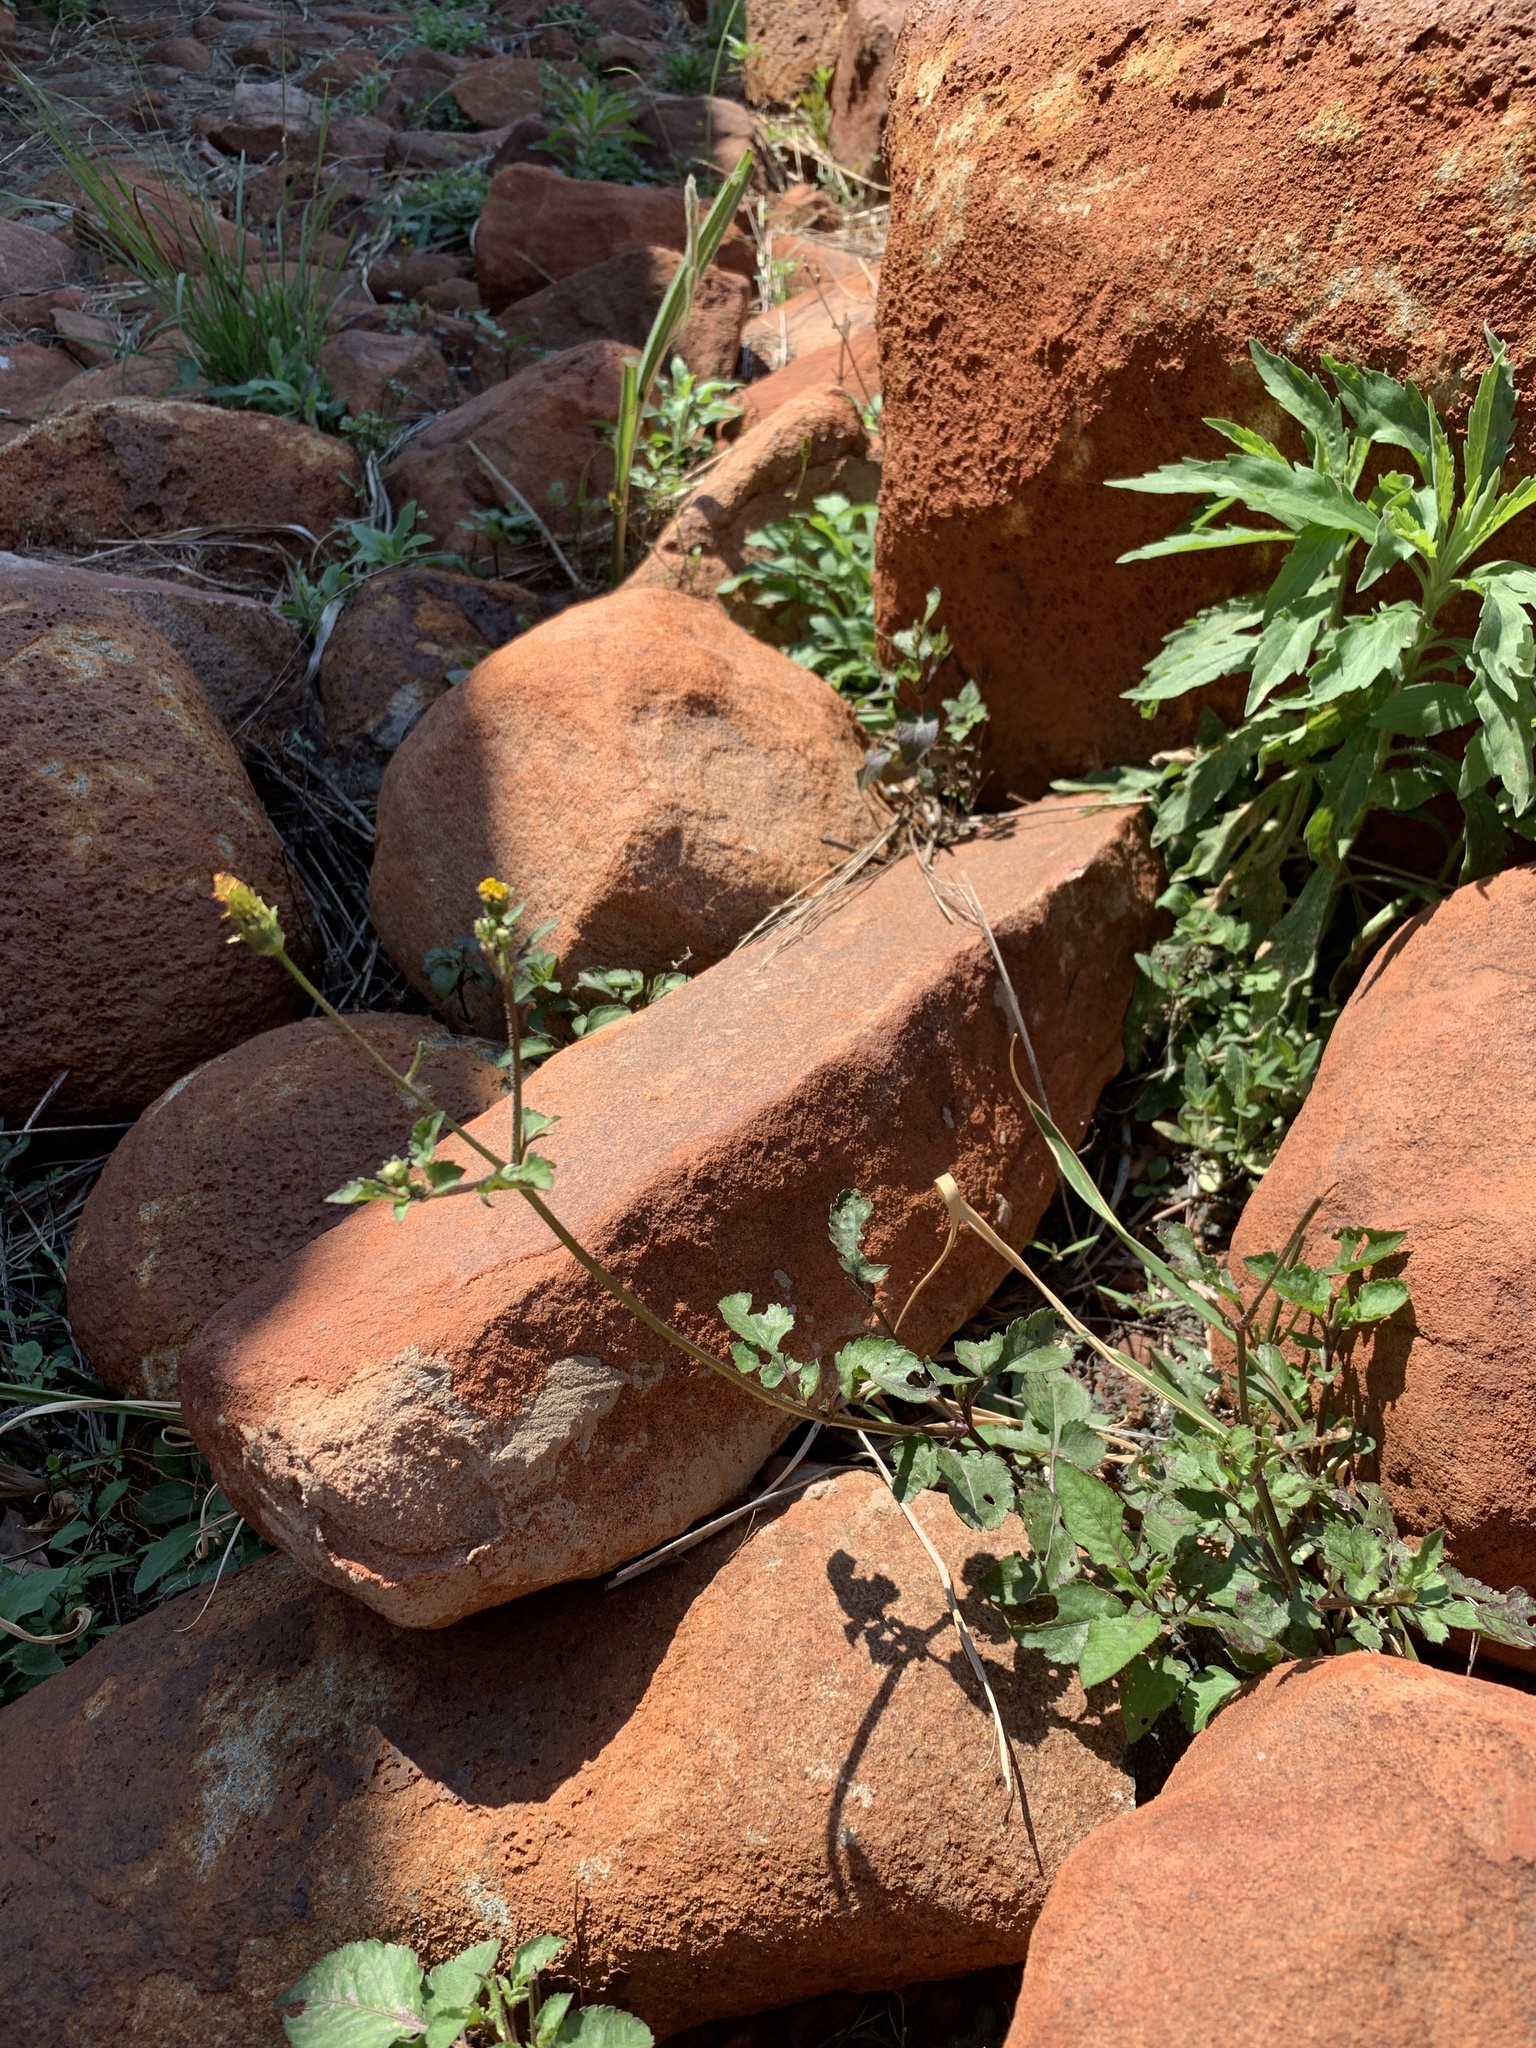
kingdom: Plantae
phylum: Tracheophyta
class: Magnoliopsida
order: Asterales
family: Asteraceae
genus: Bidens
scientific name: Bidens pilosa
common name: Black-jack
